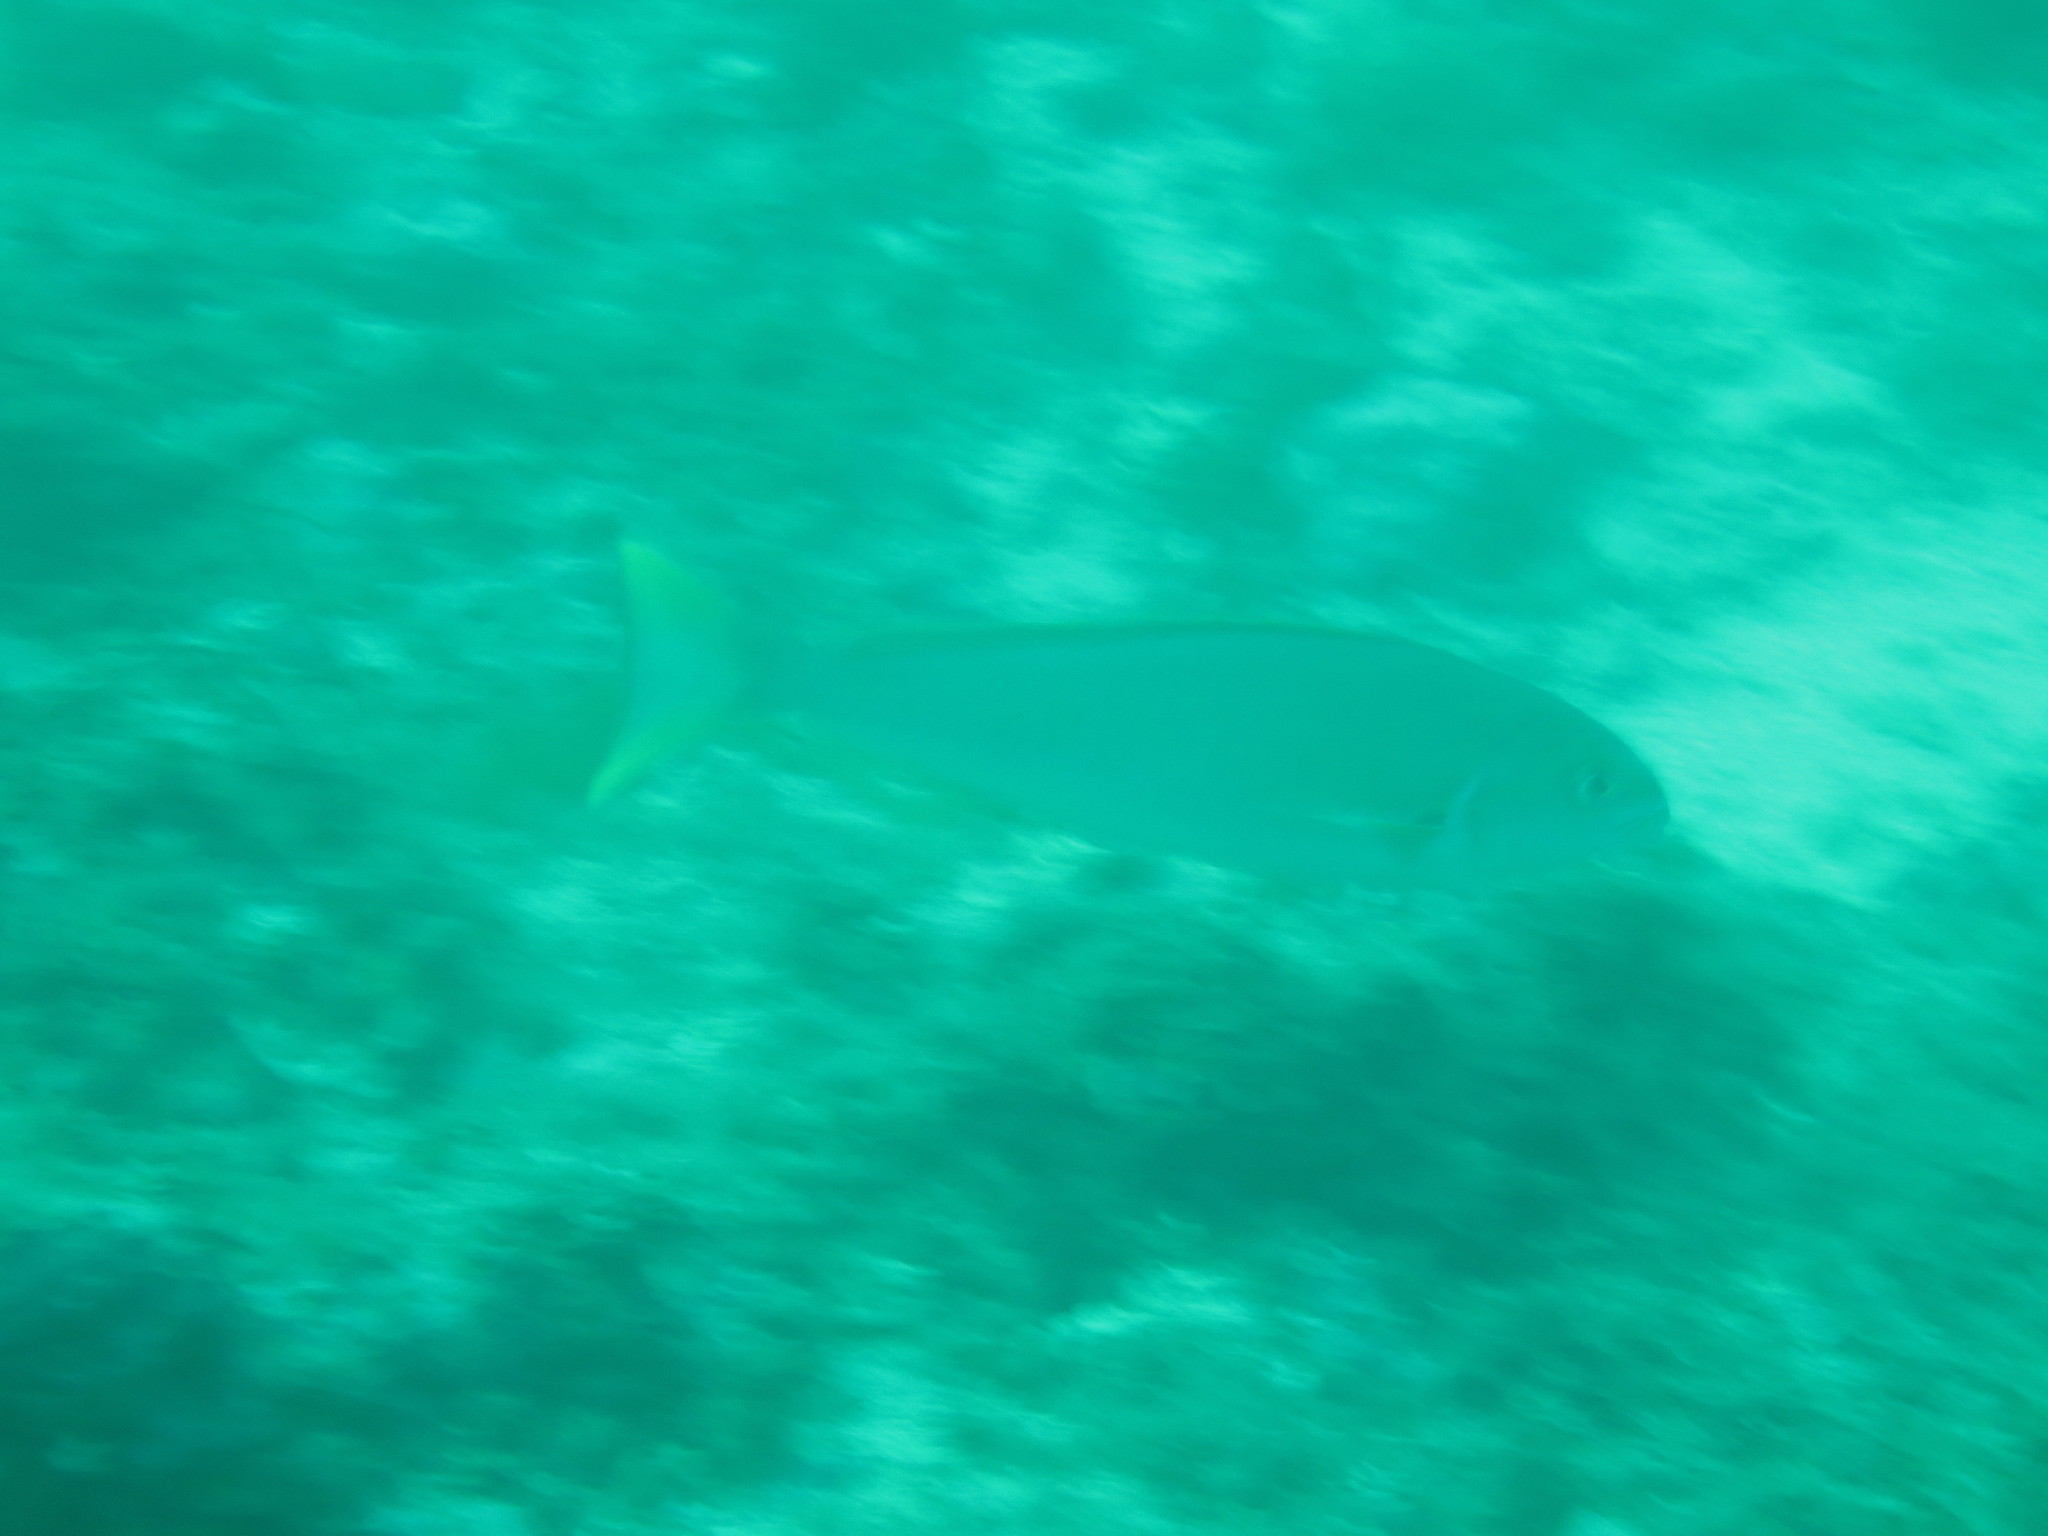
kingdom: Animalia
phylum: Chordata
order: Perciformes
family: Malacanthidae
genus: Caulolatilus
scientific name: Caulolatilus princeps
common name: Ocean whitefish
